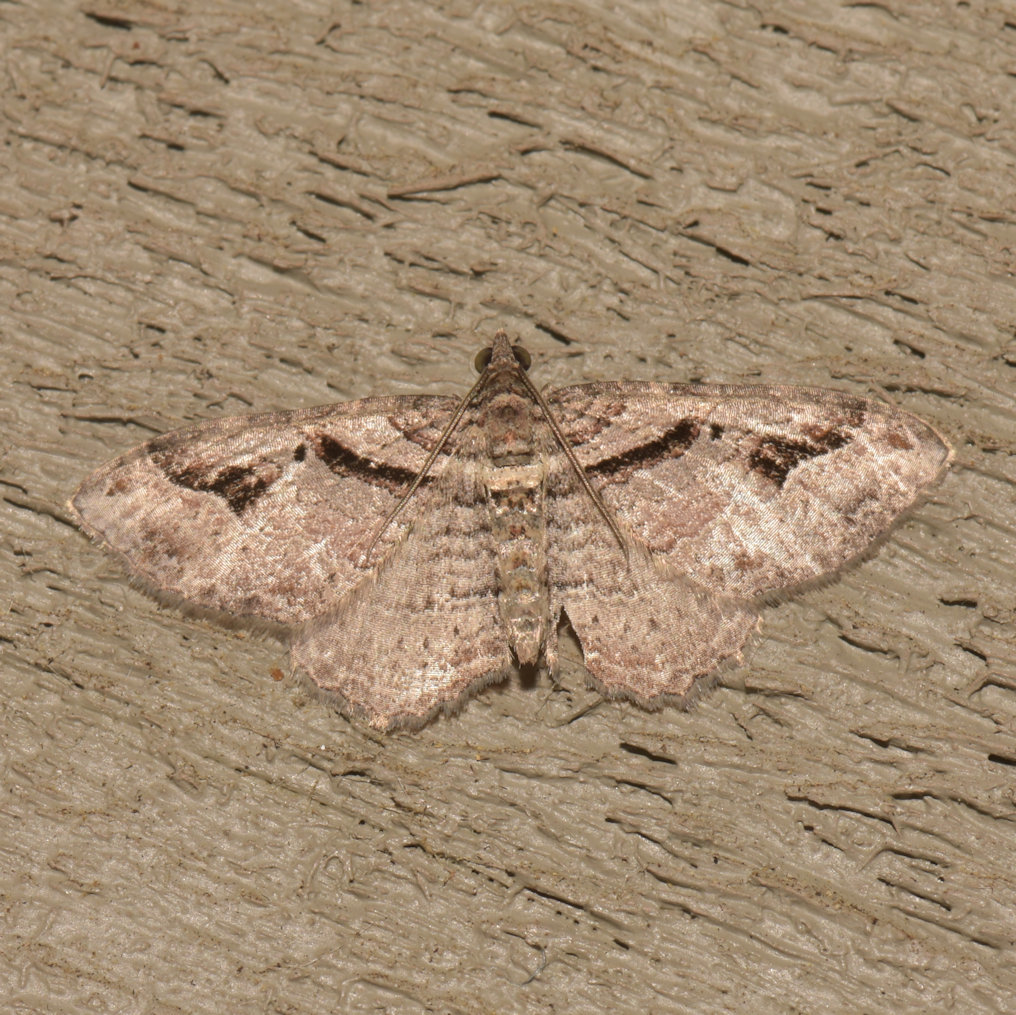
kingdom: Animalia
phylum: Arthropoda
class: Insecta
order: Lepidoptera
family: Geometridae
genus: Costaconvexa
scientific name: Costaconvexa centrostrigaria
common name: Bent-line carpet
